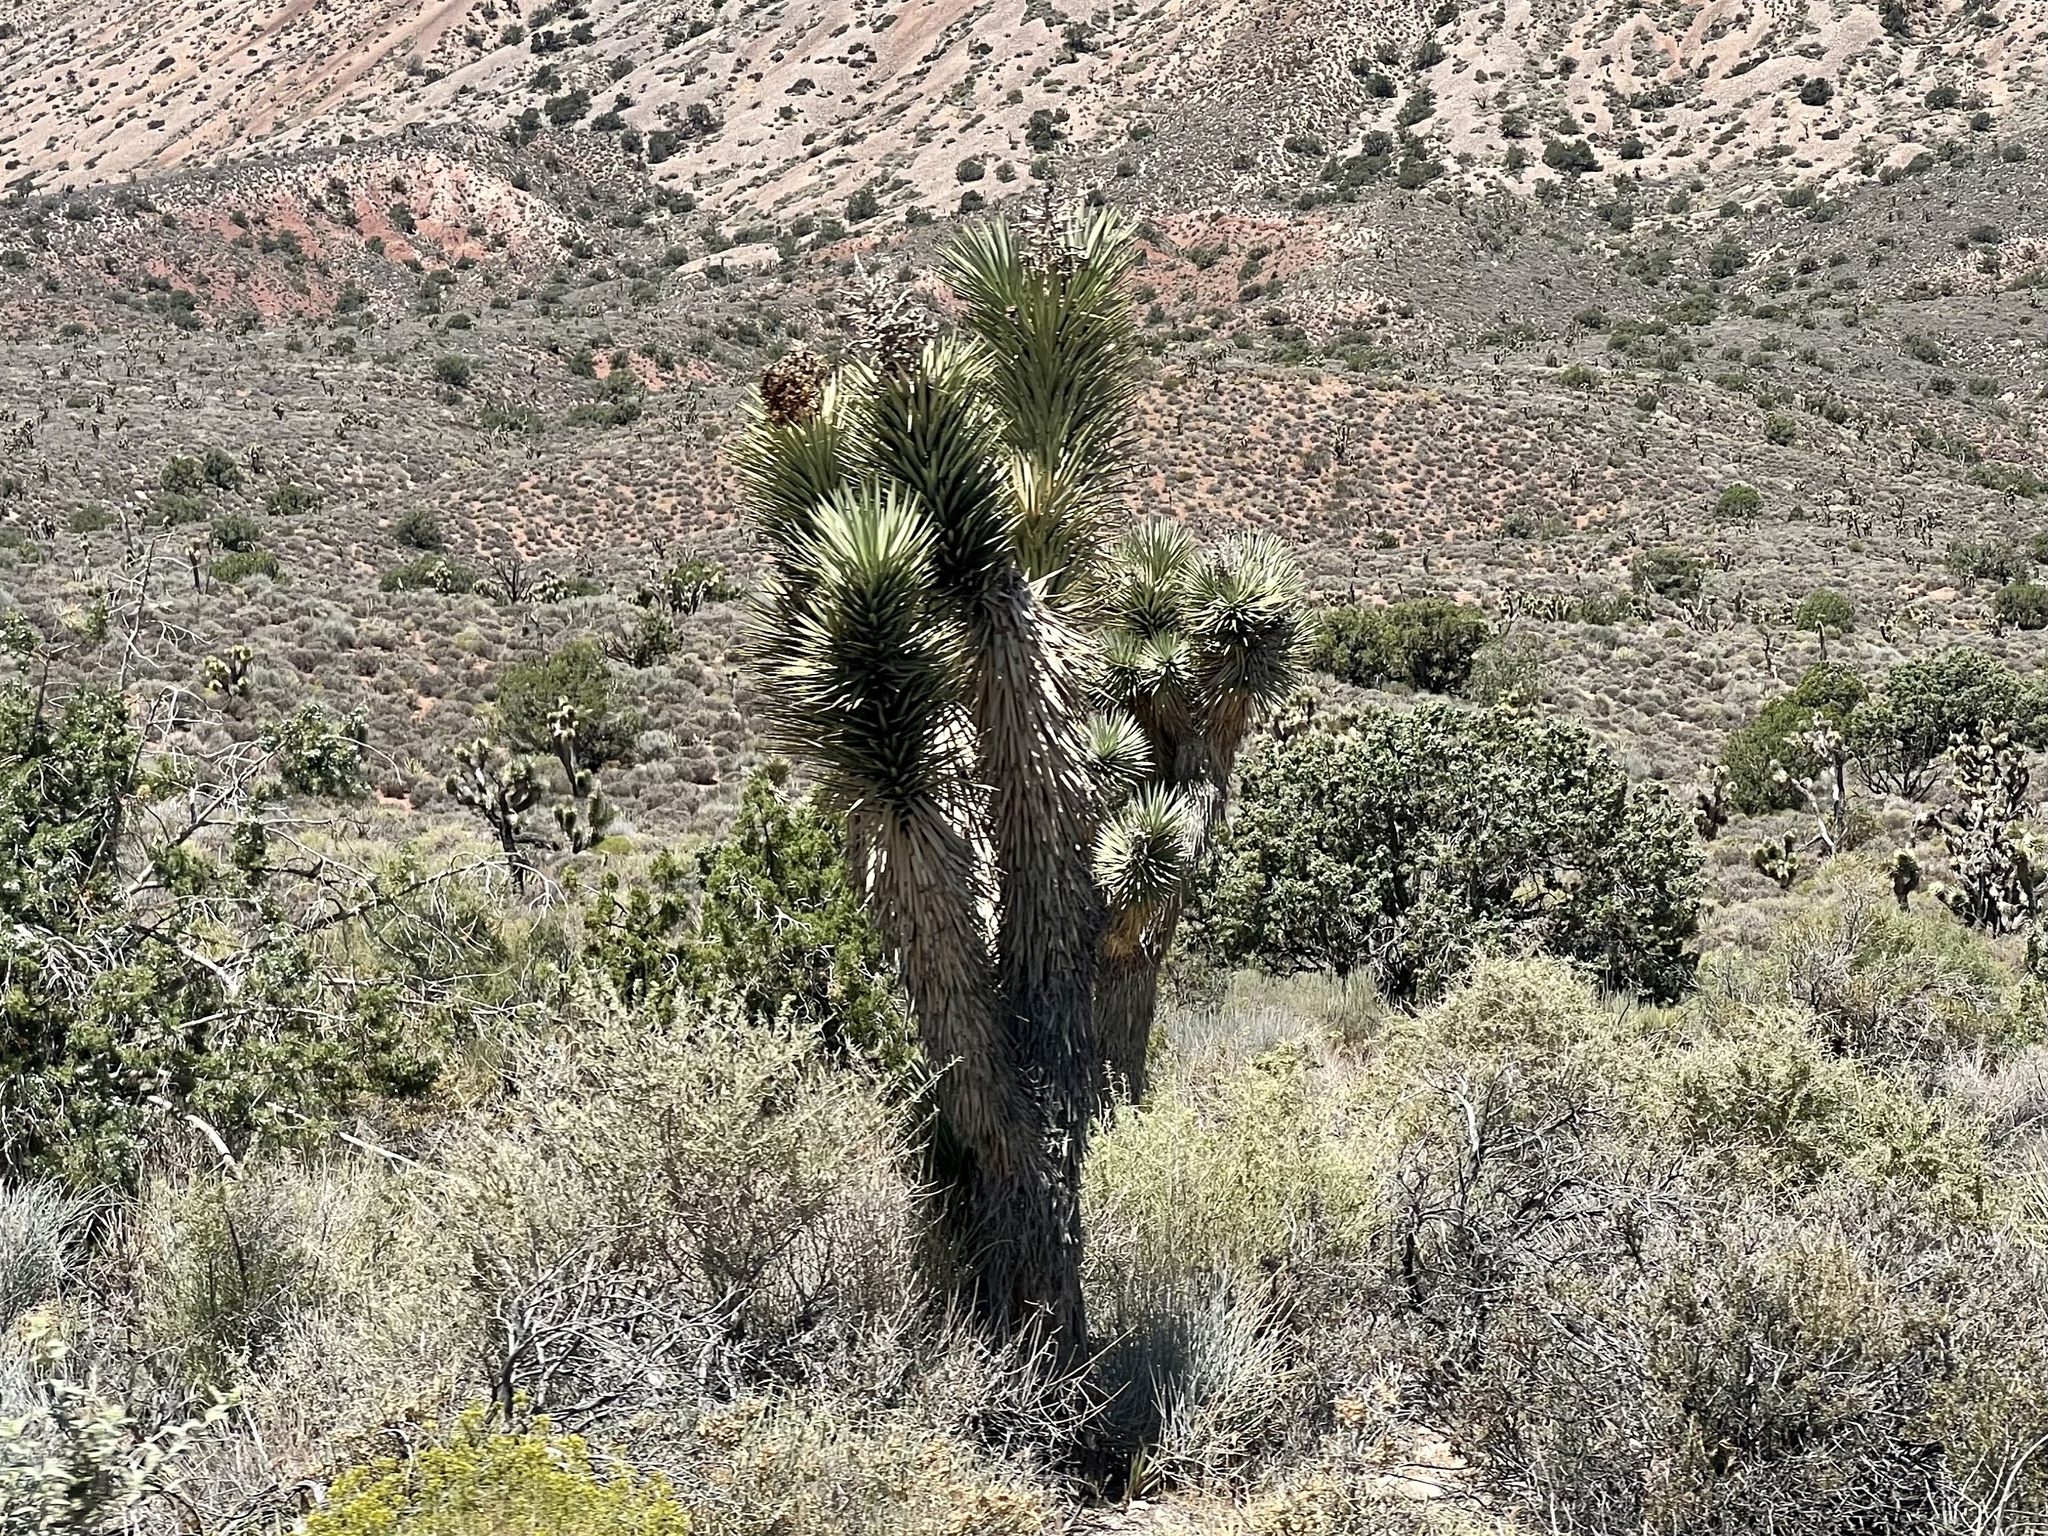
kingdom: Plantae
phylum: Tracheophyta
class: Liliopsida
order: Asparagales
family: Asparagaceae
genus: Yucca
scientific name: Yucca brevifolia
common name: Joshua tree
